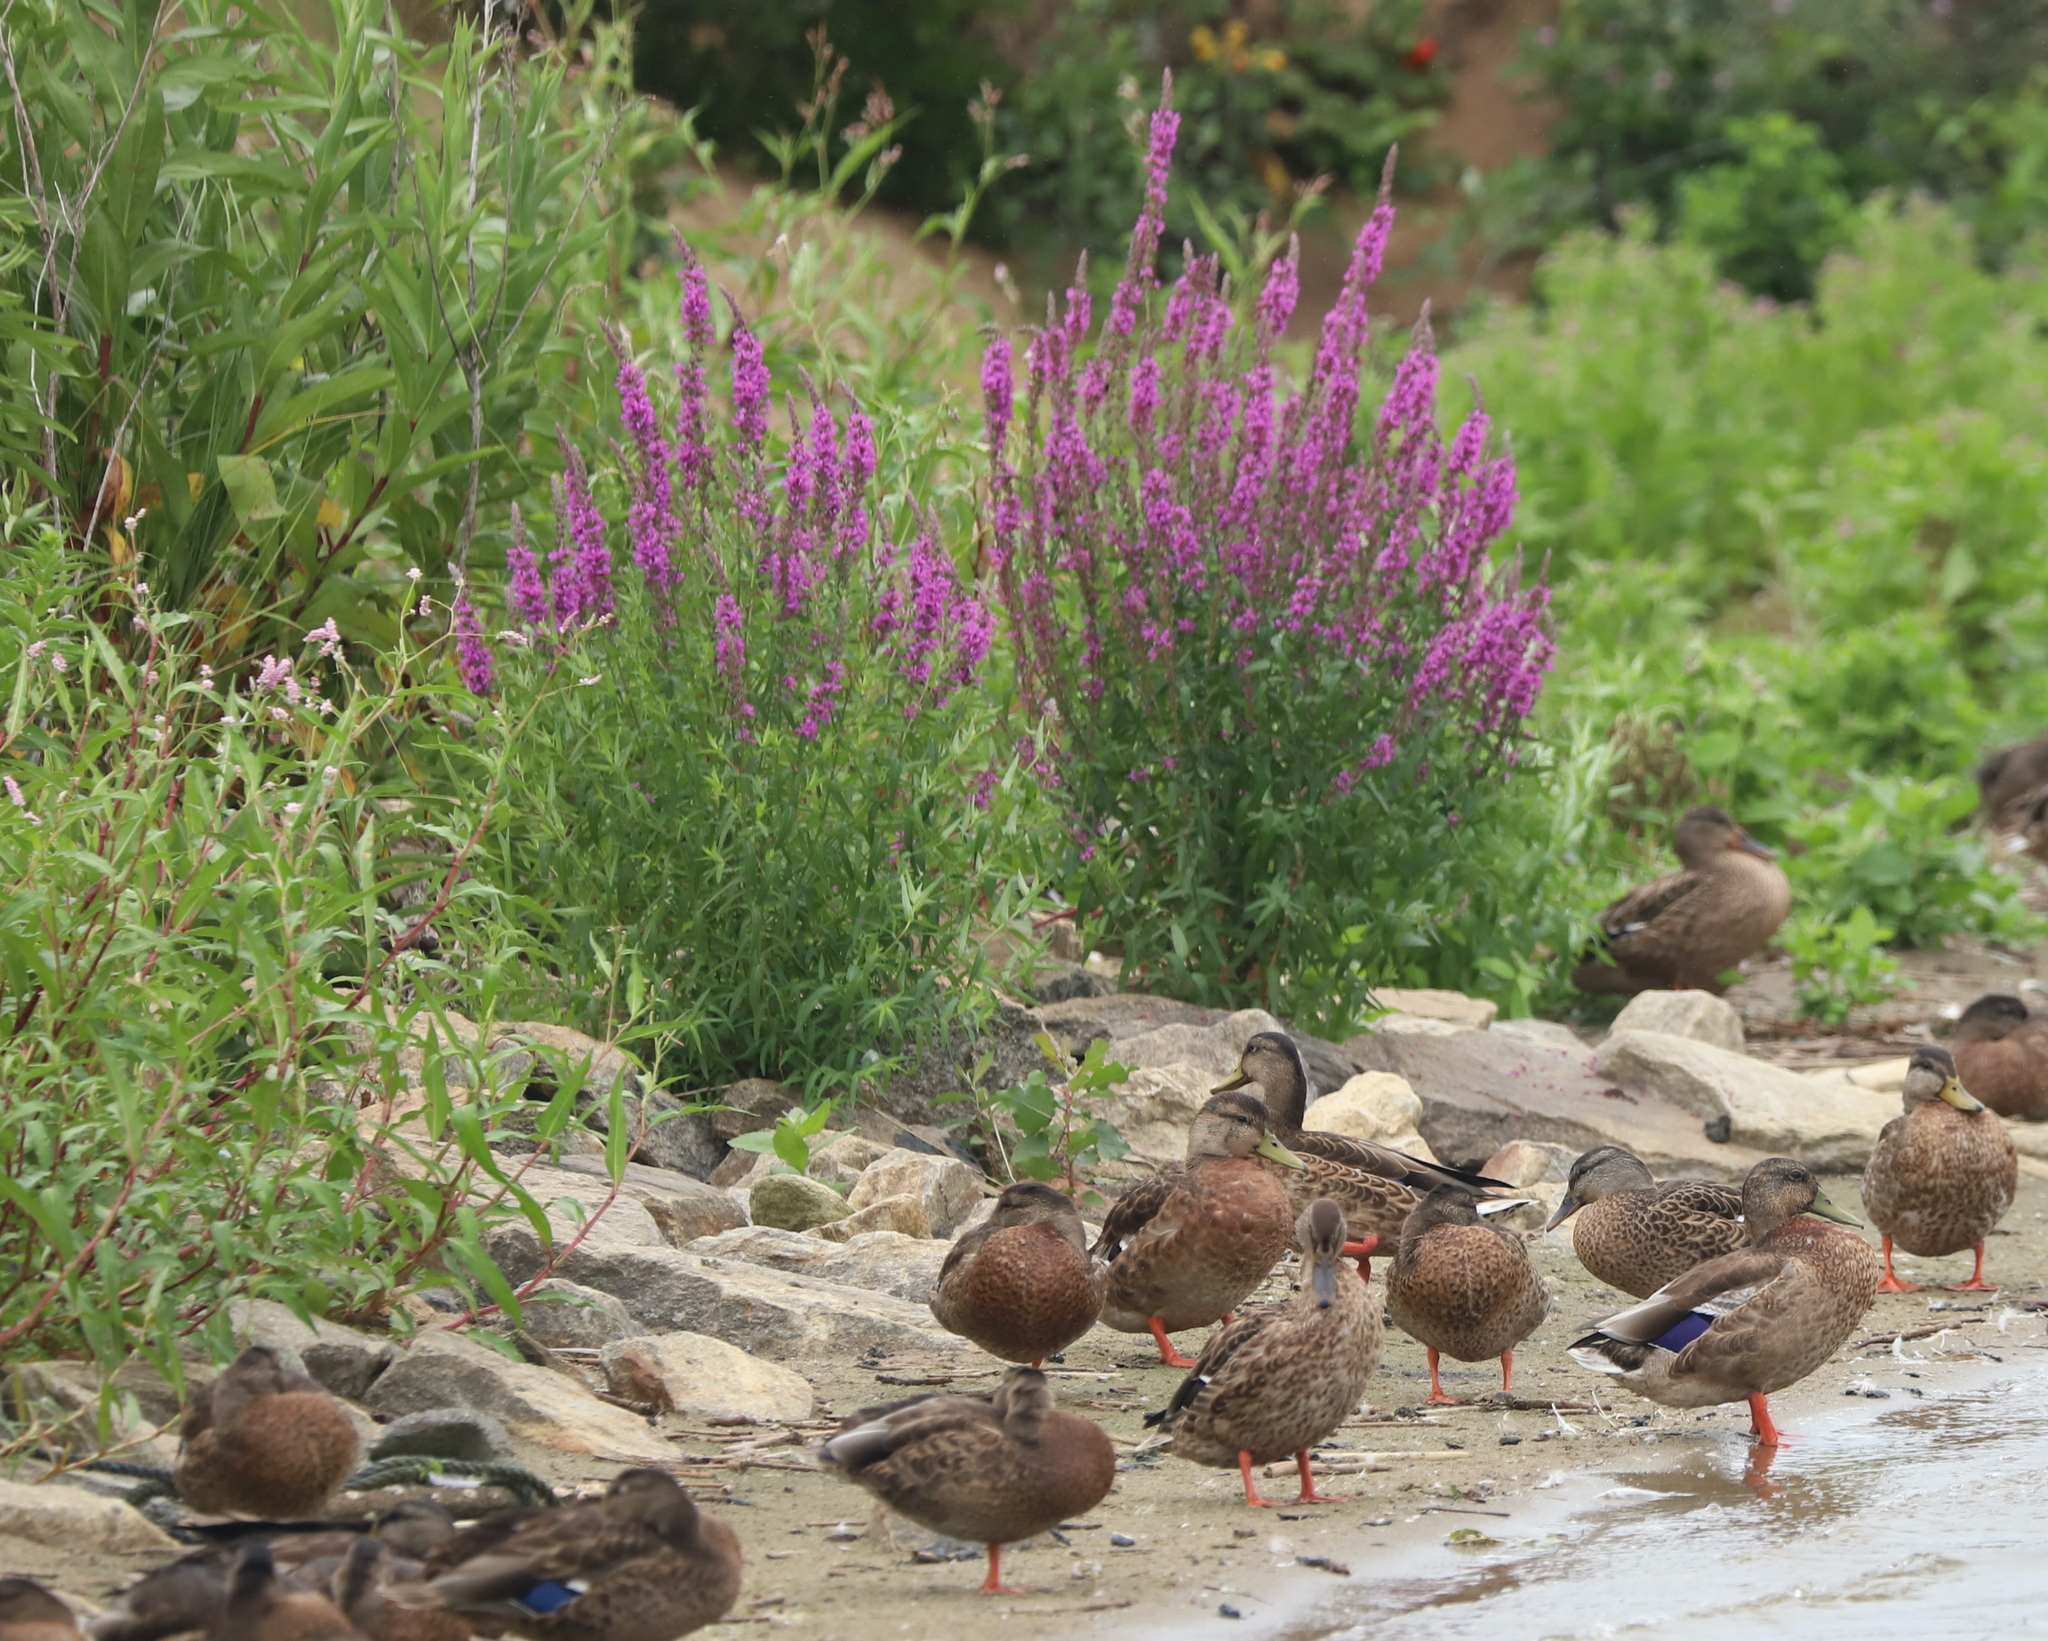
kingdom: Plantae
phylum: Tracheophyta
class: Magnoliopsida
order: Myrtales
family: Lythraceae
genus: Lythrum
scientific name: Lythrum salicaria
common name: Purple loosestrife
